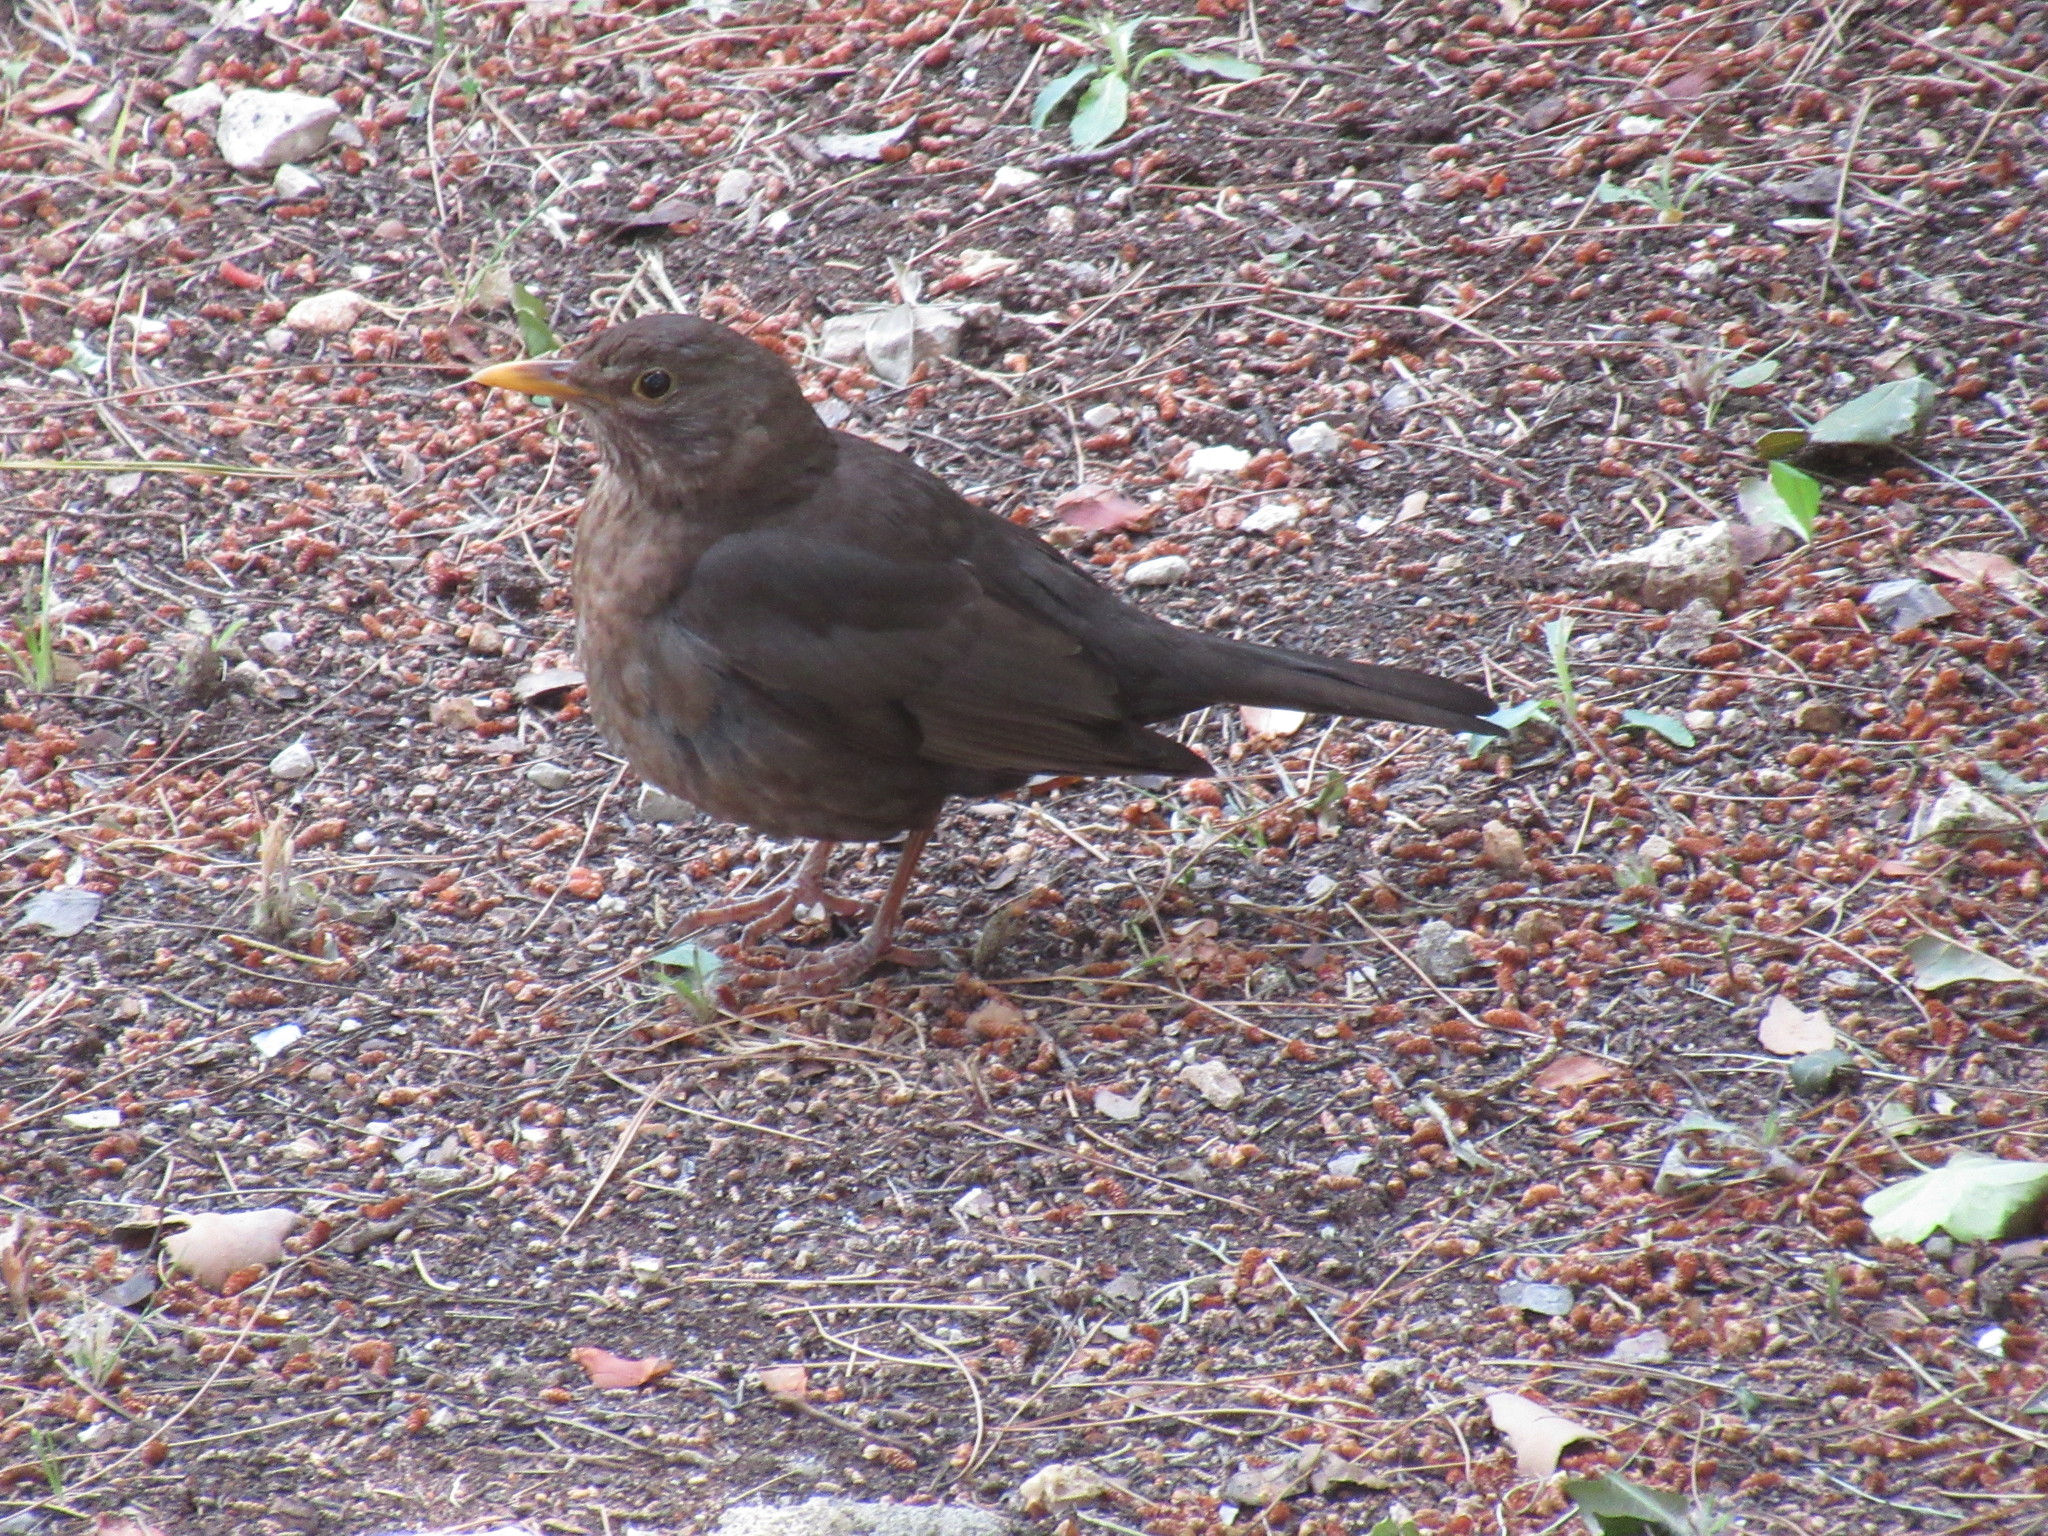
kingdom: Animalia
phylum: Chordata
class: Aves
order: Passeriformes
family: Turdidae
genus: Turdus
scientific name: Turdus merula
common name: Common blackbird
